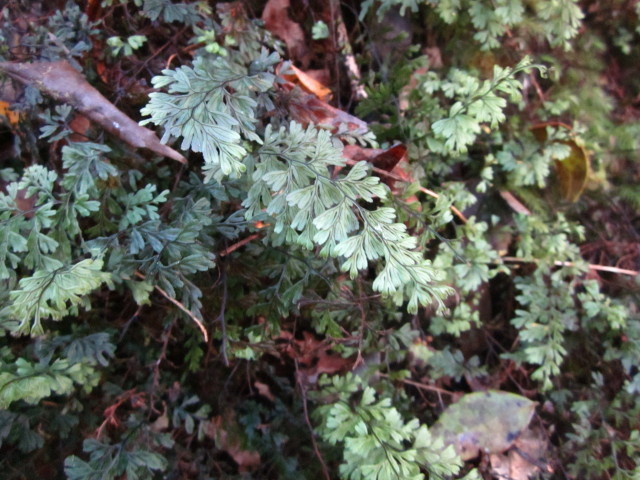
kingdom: Plantae
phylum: Tracheophyta
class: Polypodiopsida
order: Hymenophyllales
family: Hymenophyllaceae
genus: Hymenophyllum
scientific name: Hymenophyllum tunbrigense
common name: Tunbridge filmy fern
